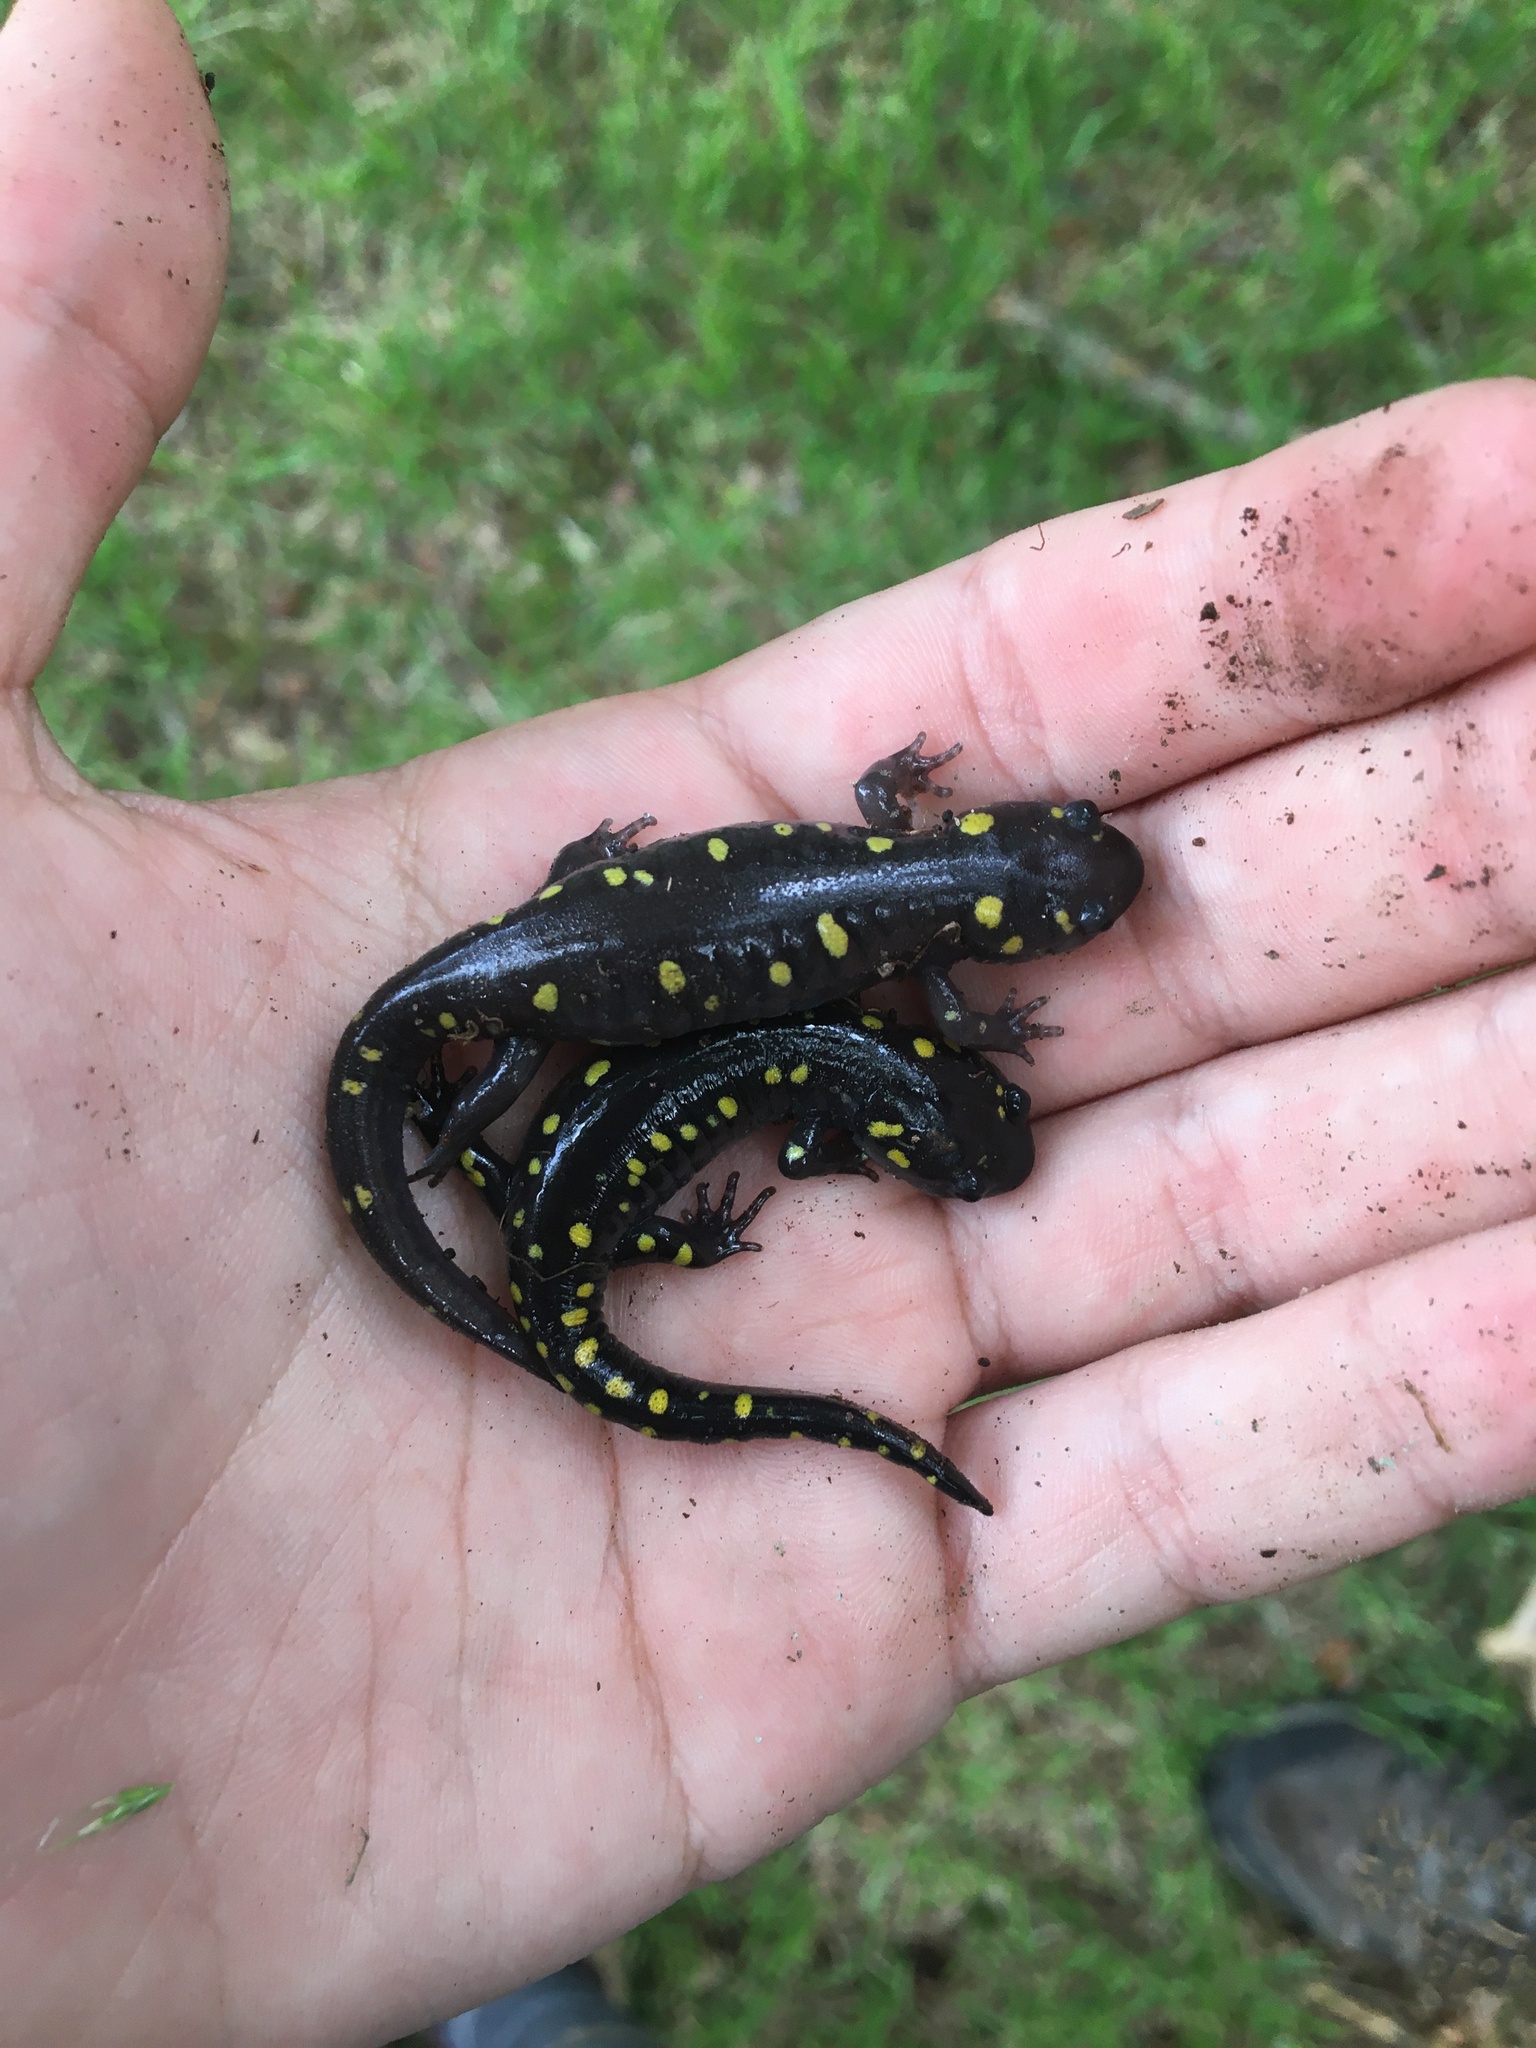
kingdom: Animalia
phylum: Chordata
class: Amphibia
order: Caudata
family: Ambystomatidae
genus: Ambystoma
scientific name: Ambystoma maculatum
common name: Spotted salamander
